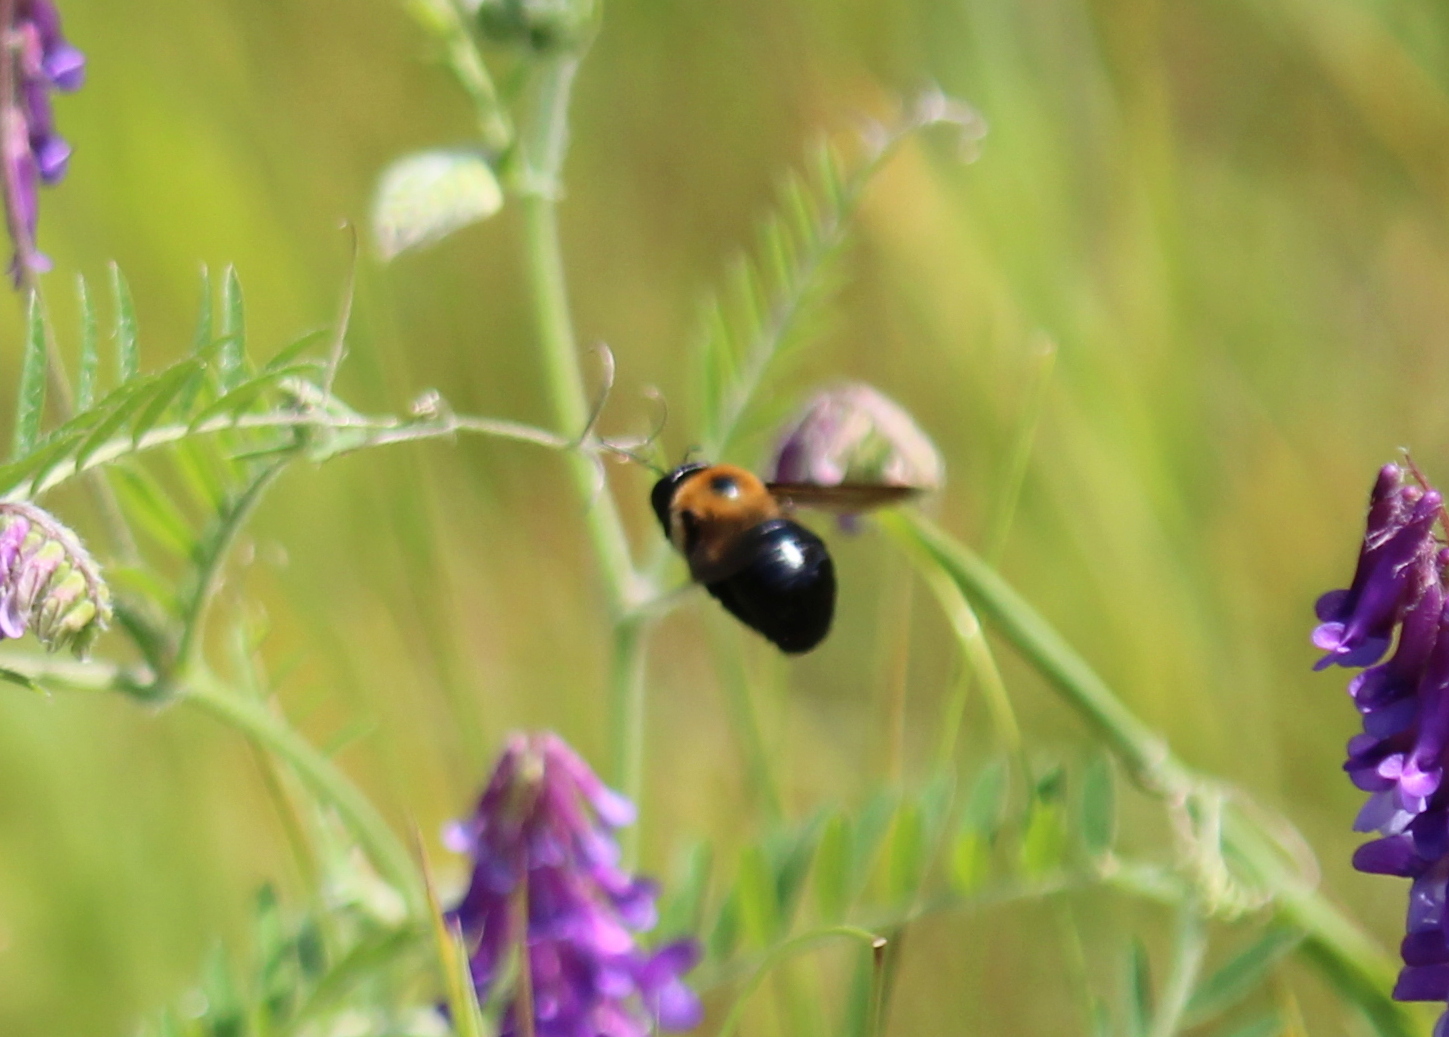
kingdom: Animalia
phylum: Arthropoda
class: Insecta
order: Hymenoptera
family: Apidae
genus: Xylocopa
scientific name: Xylocopa virginica
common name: Carpenter bee
